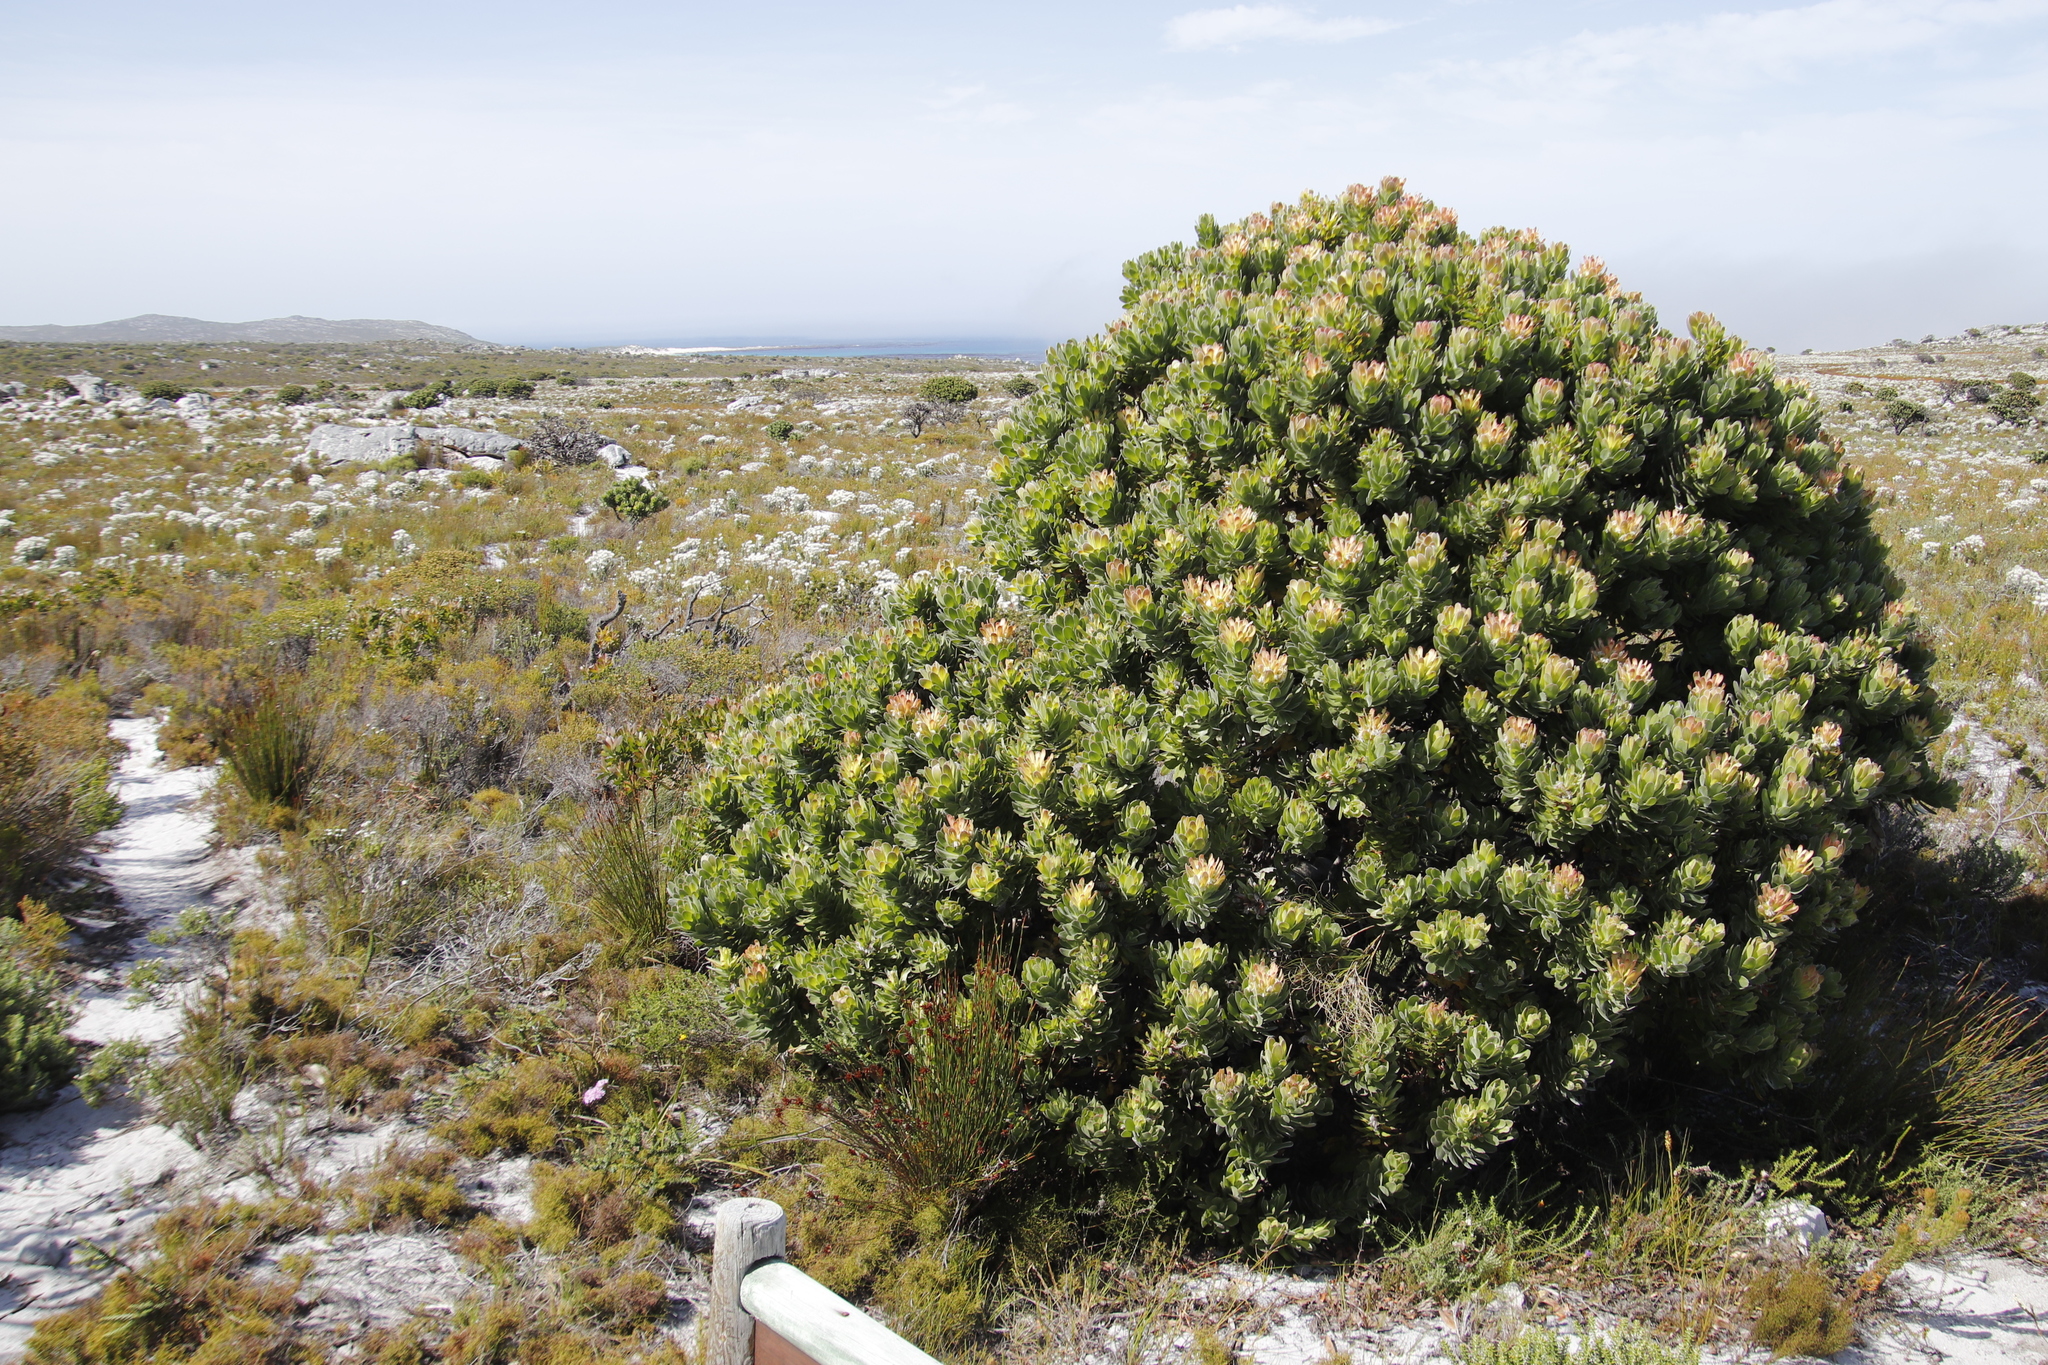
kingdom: Plantae
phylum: Tracheophyta
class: Magnoliopsida
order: Proteales
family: Proteaceae
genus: Mimetes
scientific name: Mimetes fimbriifolius
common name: Fringed bottlebrush
